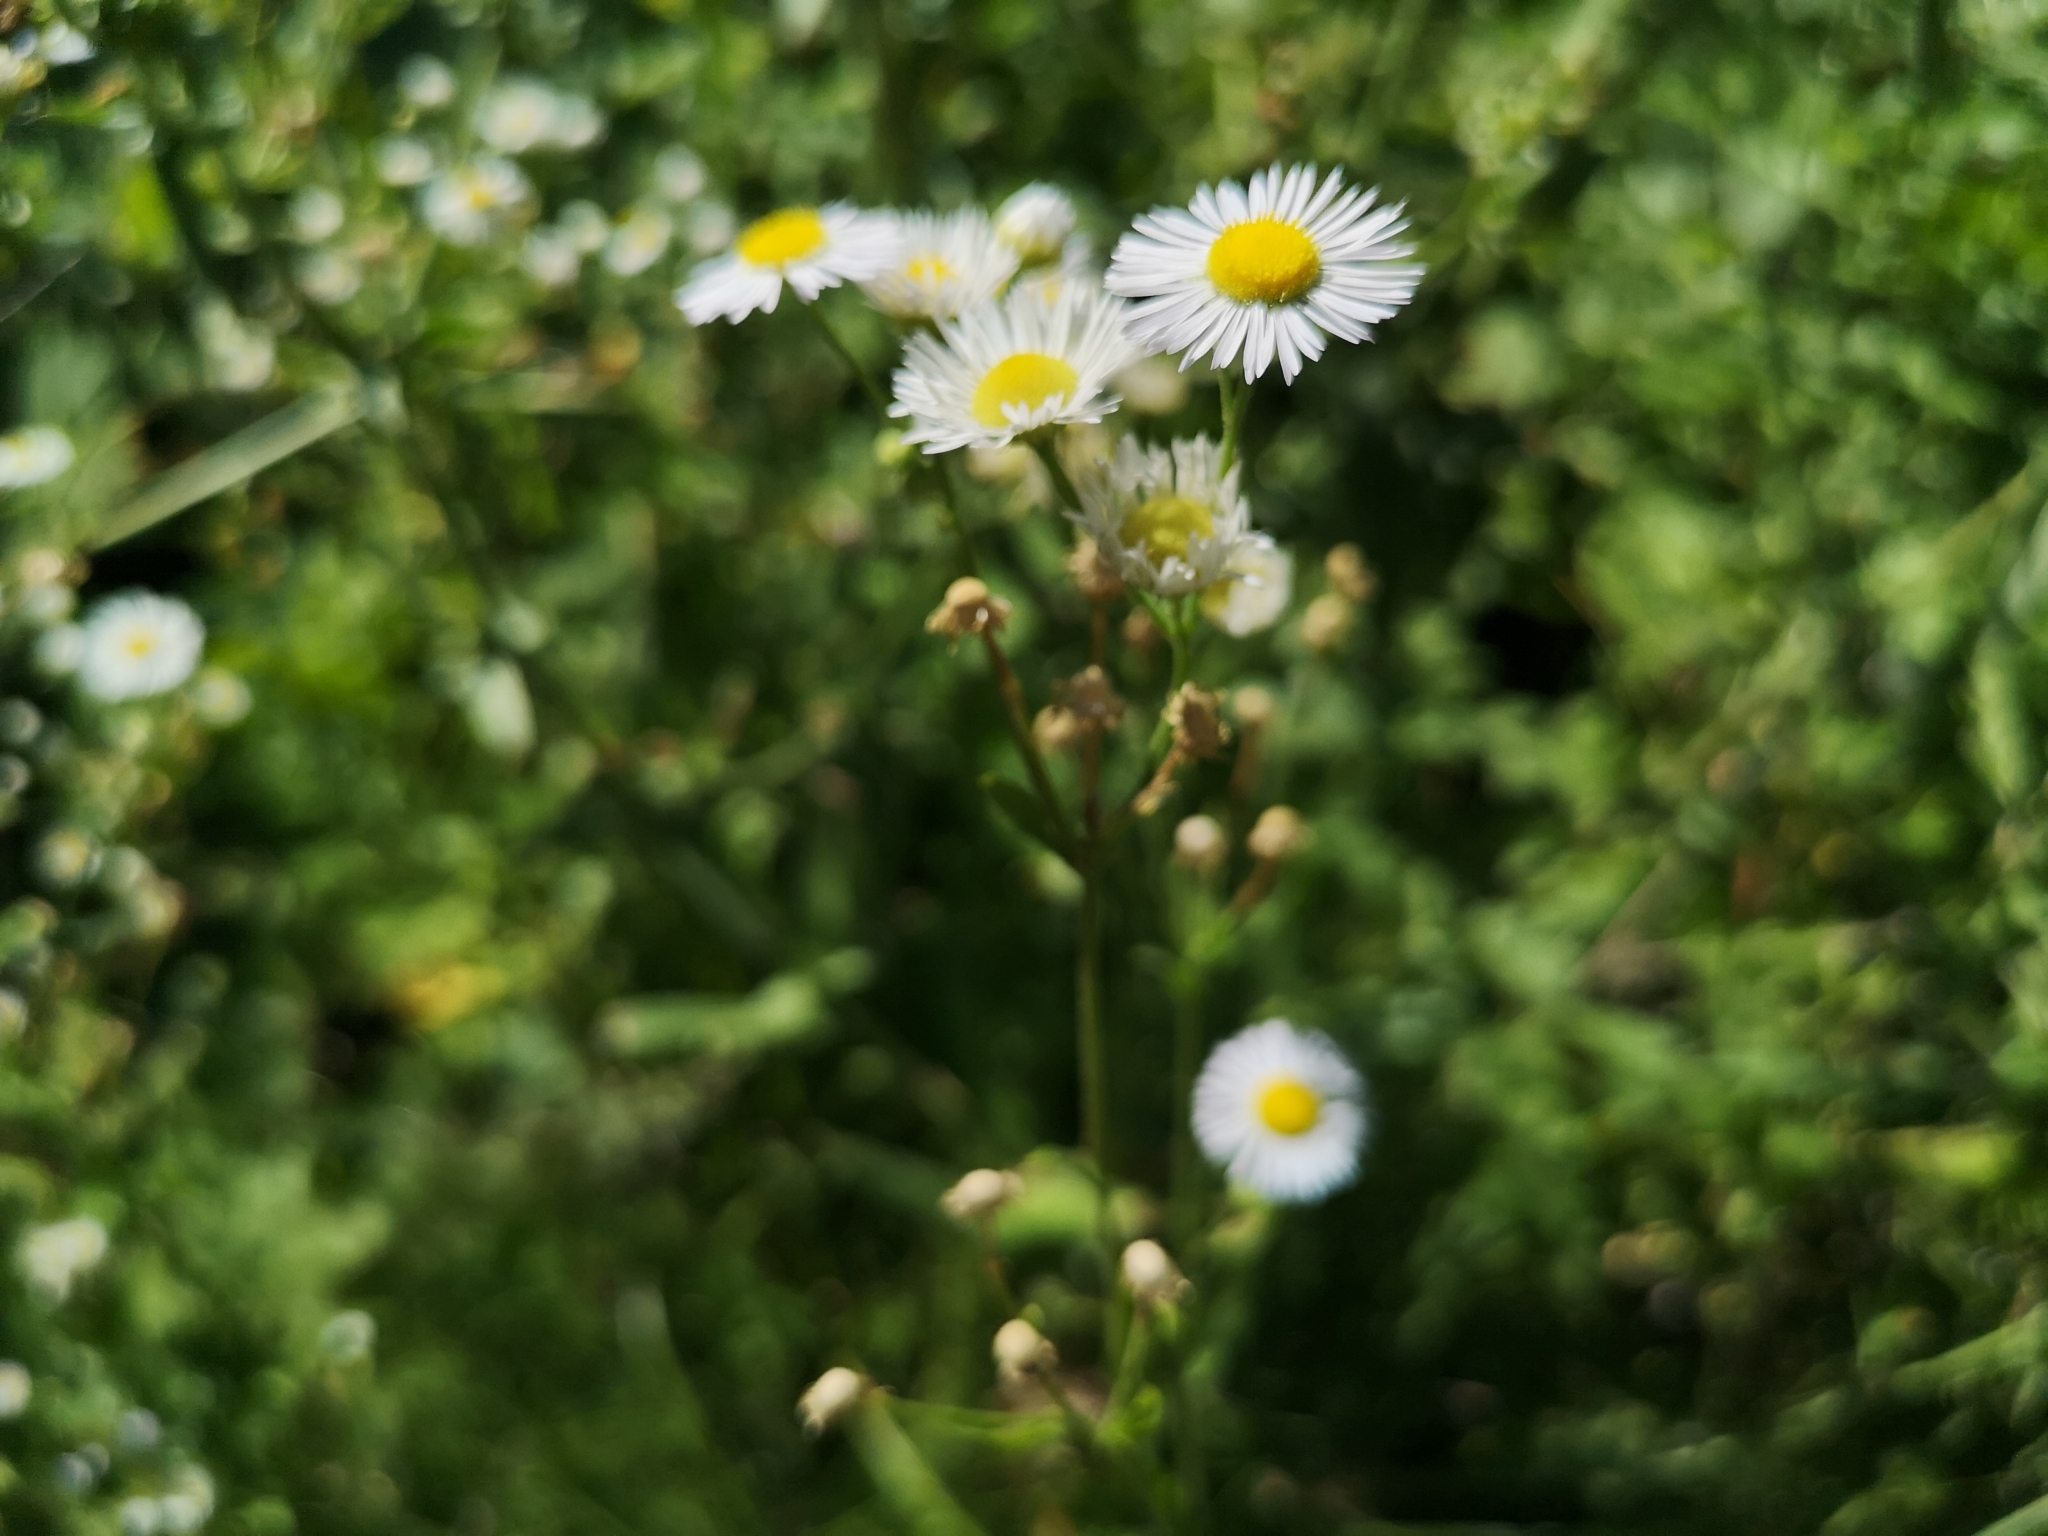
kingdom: Plantae
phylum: Tracheophyta
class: Magnoliopsida
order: Asterales
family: Asteraceae
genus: Erigeron
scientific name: Erigeron annuus
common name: Tall fleabane
